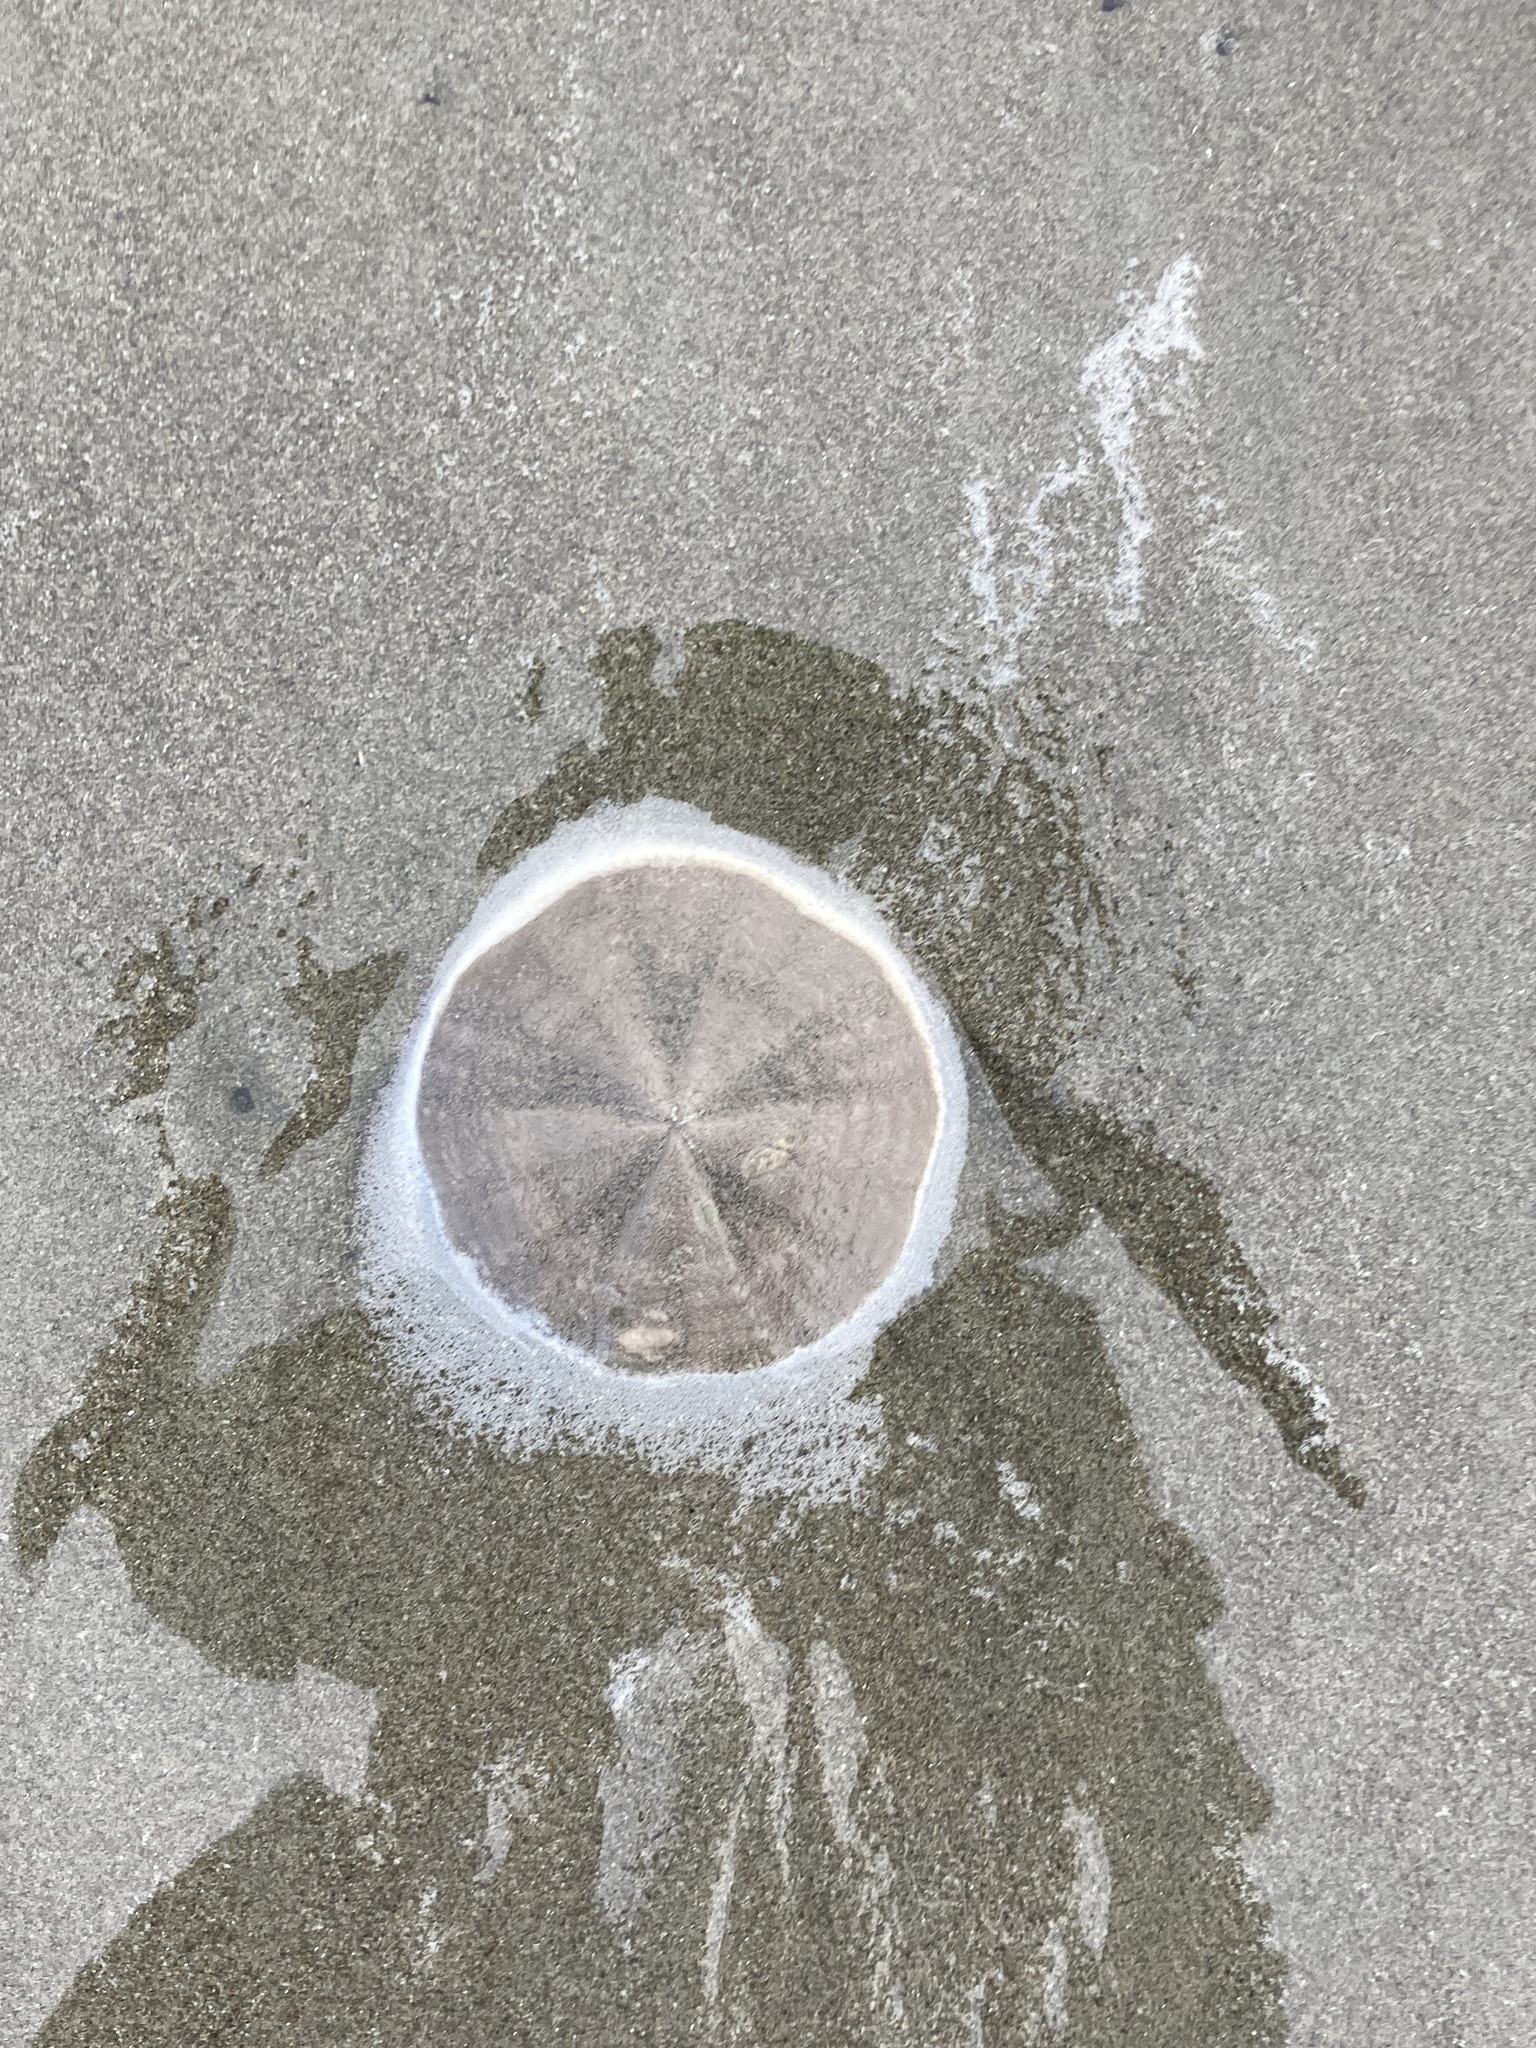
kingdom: Animalia
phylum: Echinodermata
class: Echinoidea
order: Clypeasteroida
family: Clypeasteridae
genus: Fellaster
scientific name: Fellaster zelandiae
